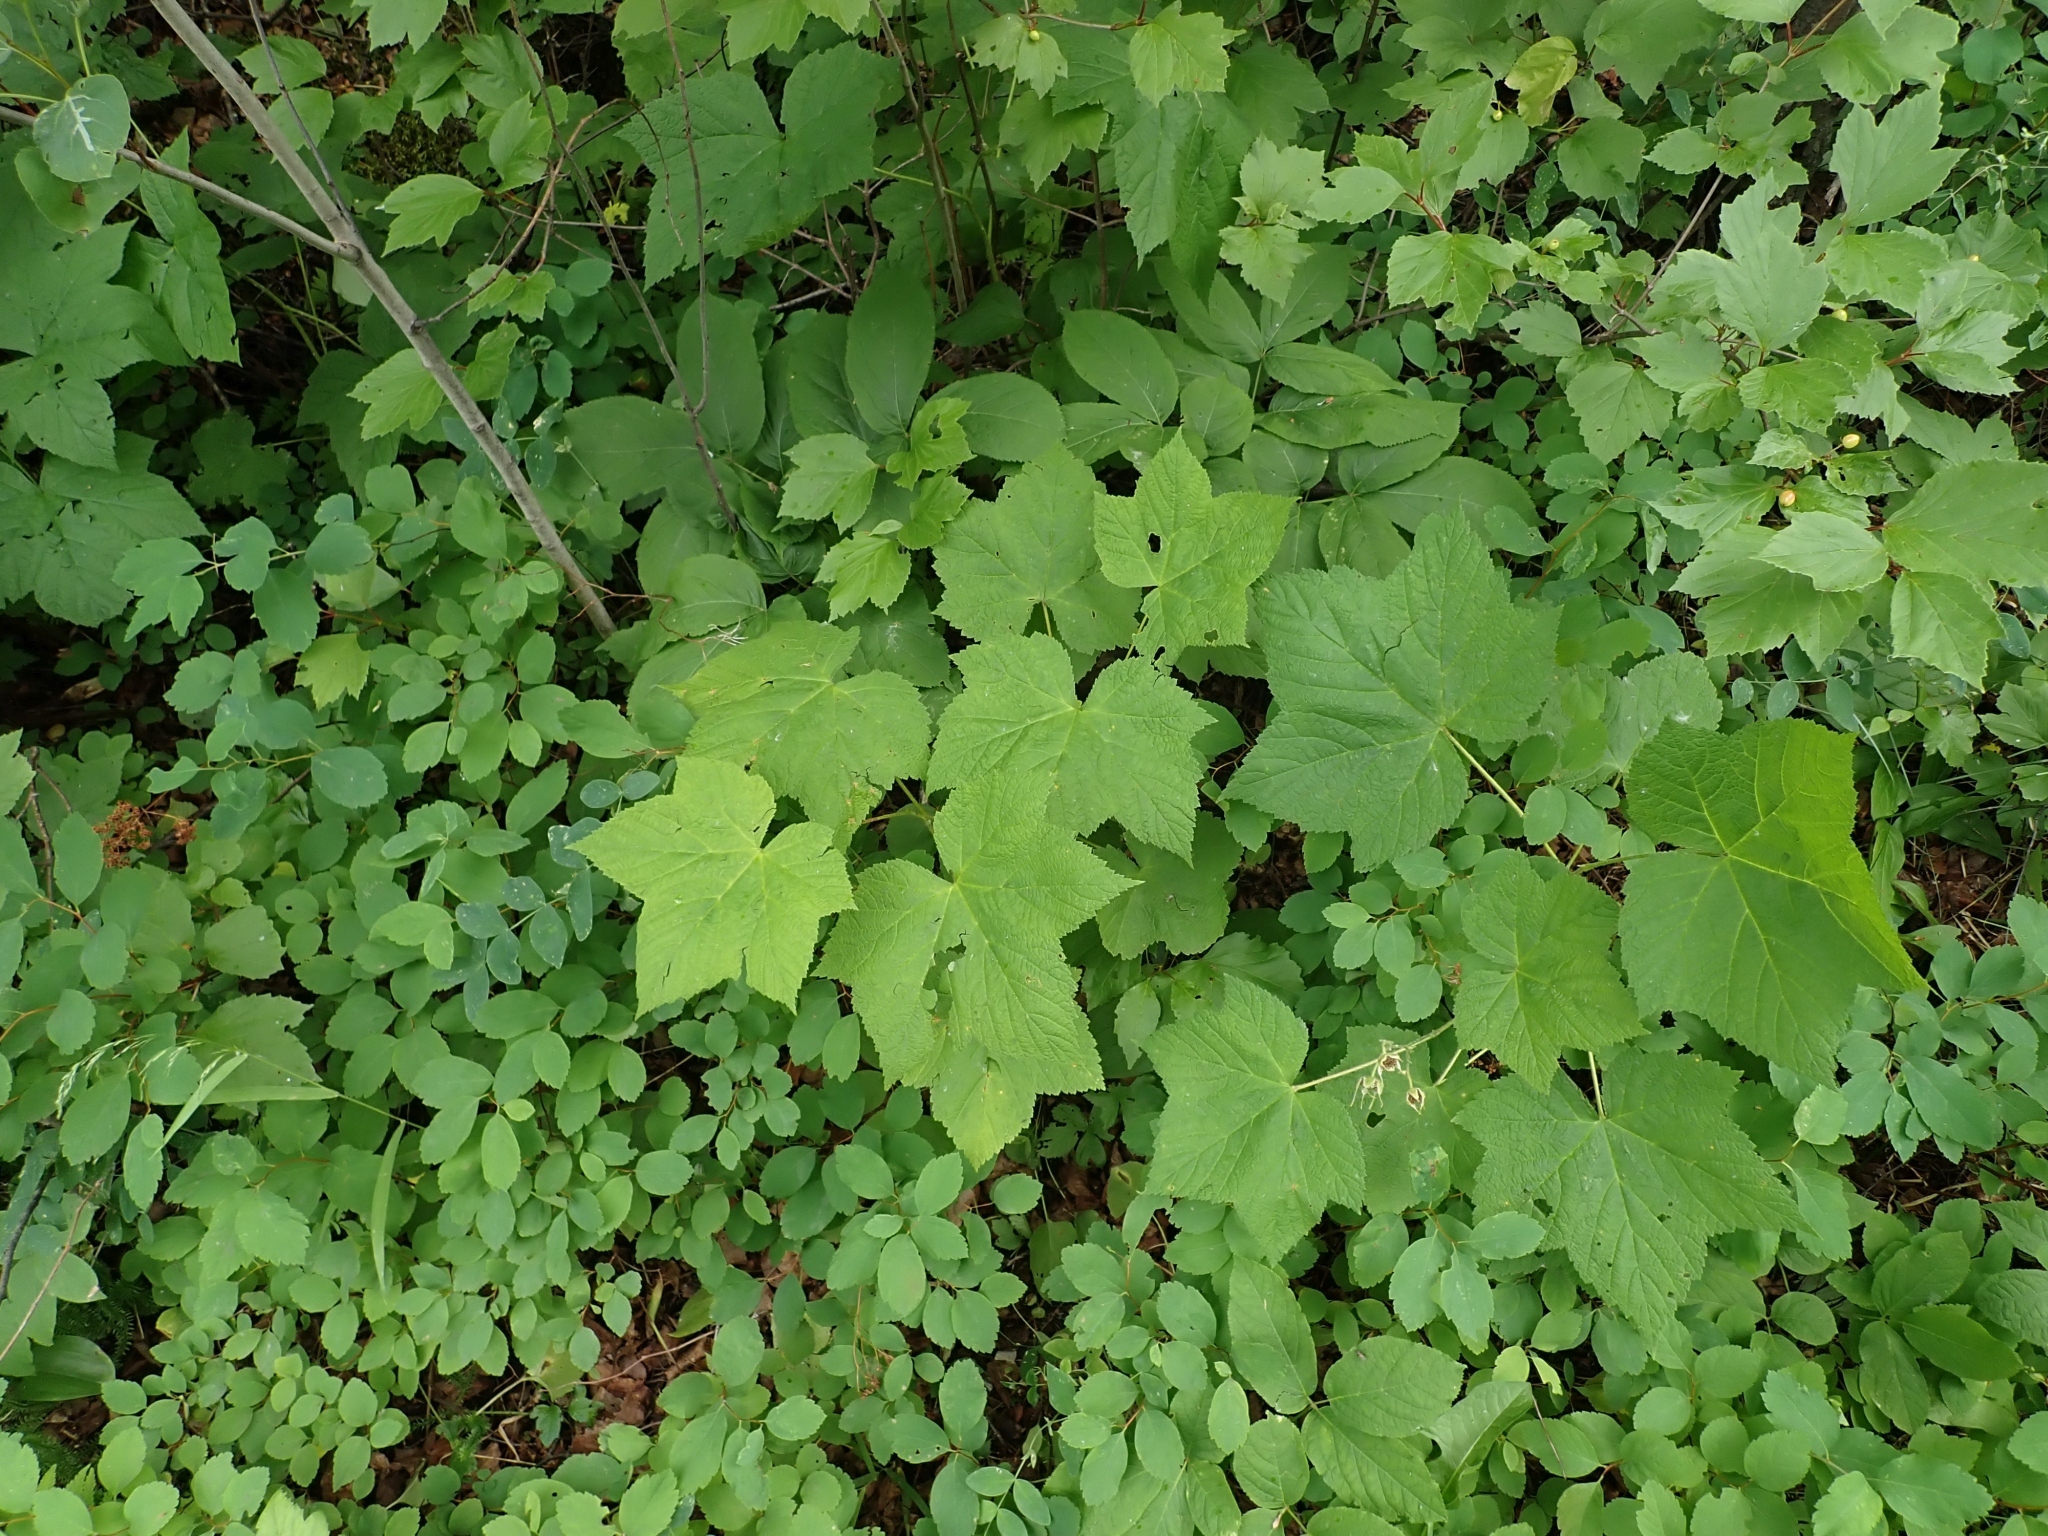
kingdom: Plantae
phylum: Tracheophyta
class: Magnoliopsida
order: Rosales
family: Rosaceae
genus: Rubus
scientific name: Rubus parviflorus
